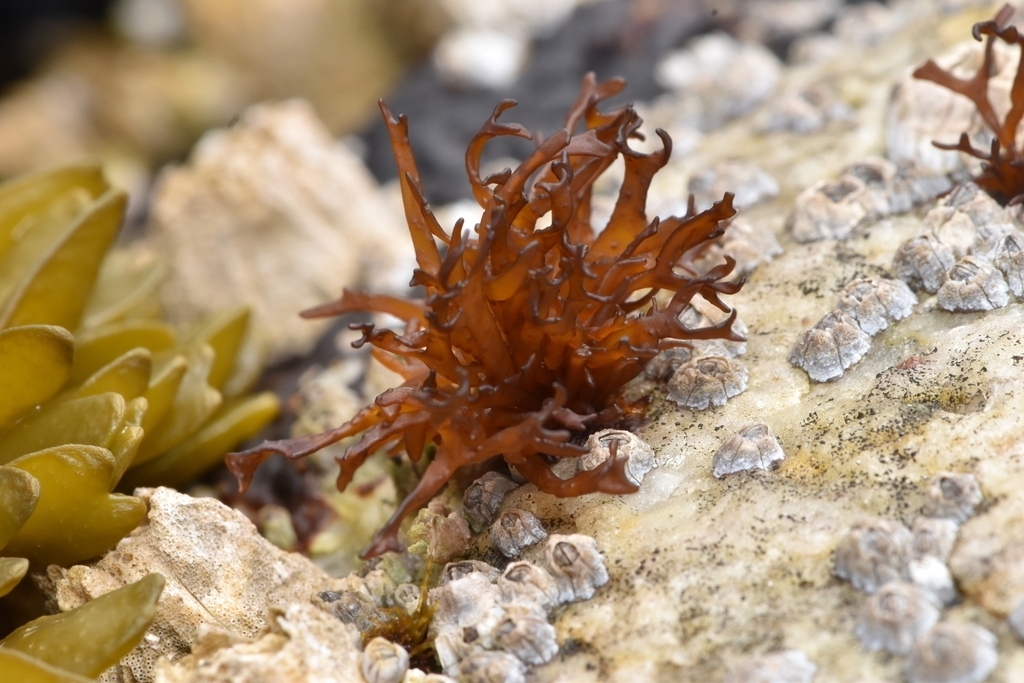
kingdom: Plantae
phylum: Rhodophyta
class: Florideophyceae
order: Gigartinales
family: Endocladiaceae
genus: Gloiopeltis
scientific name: Gloiopeltis furcata
